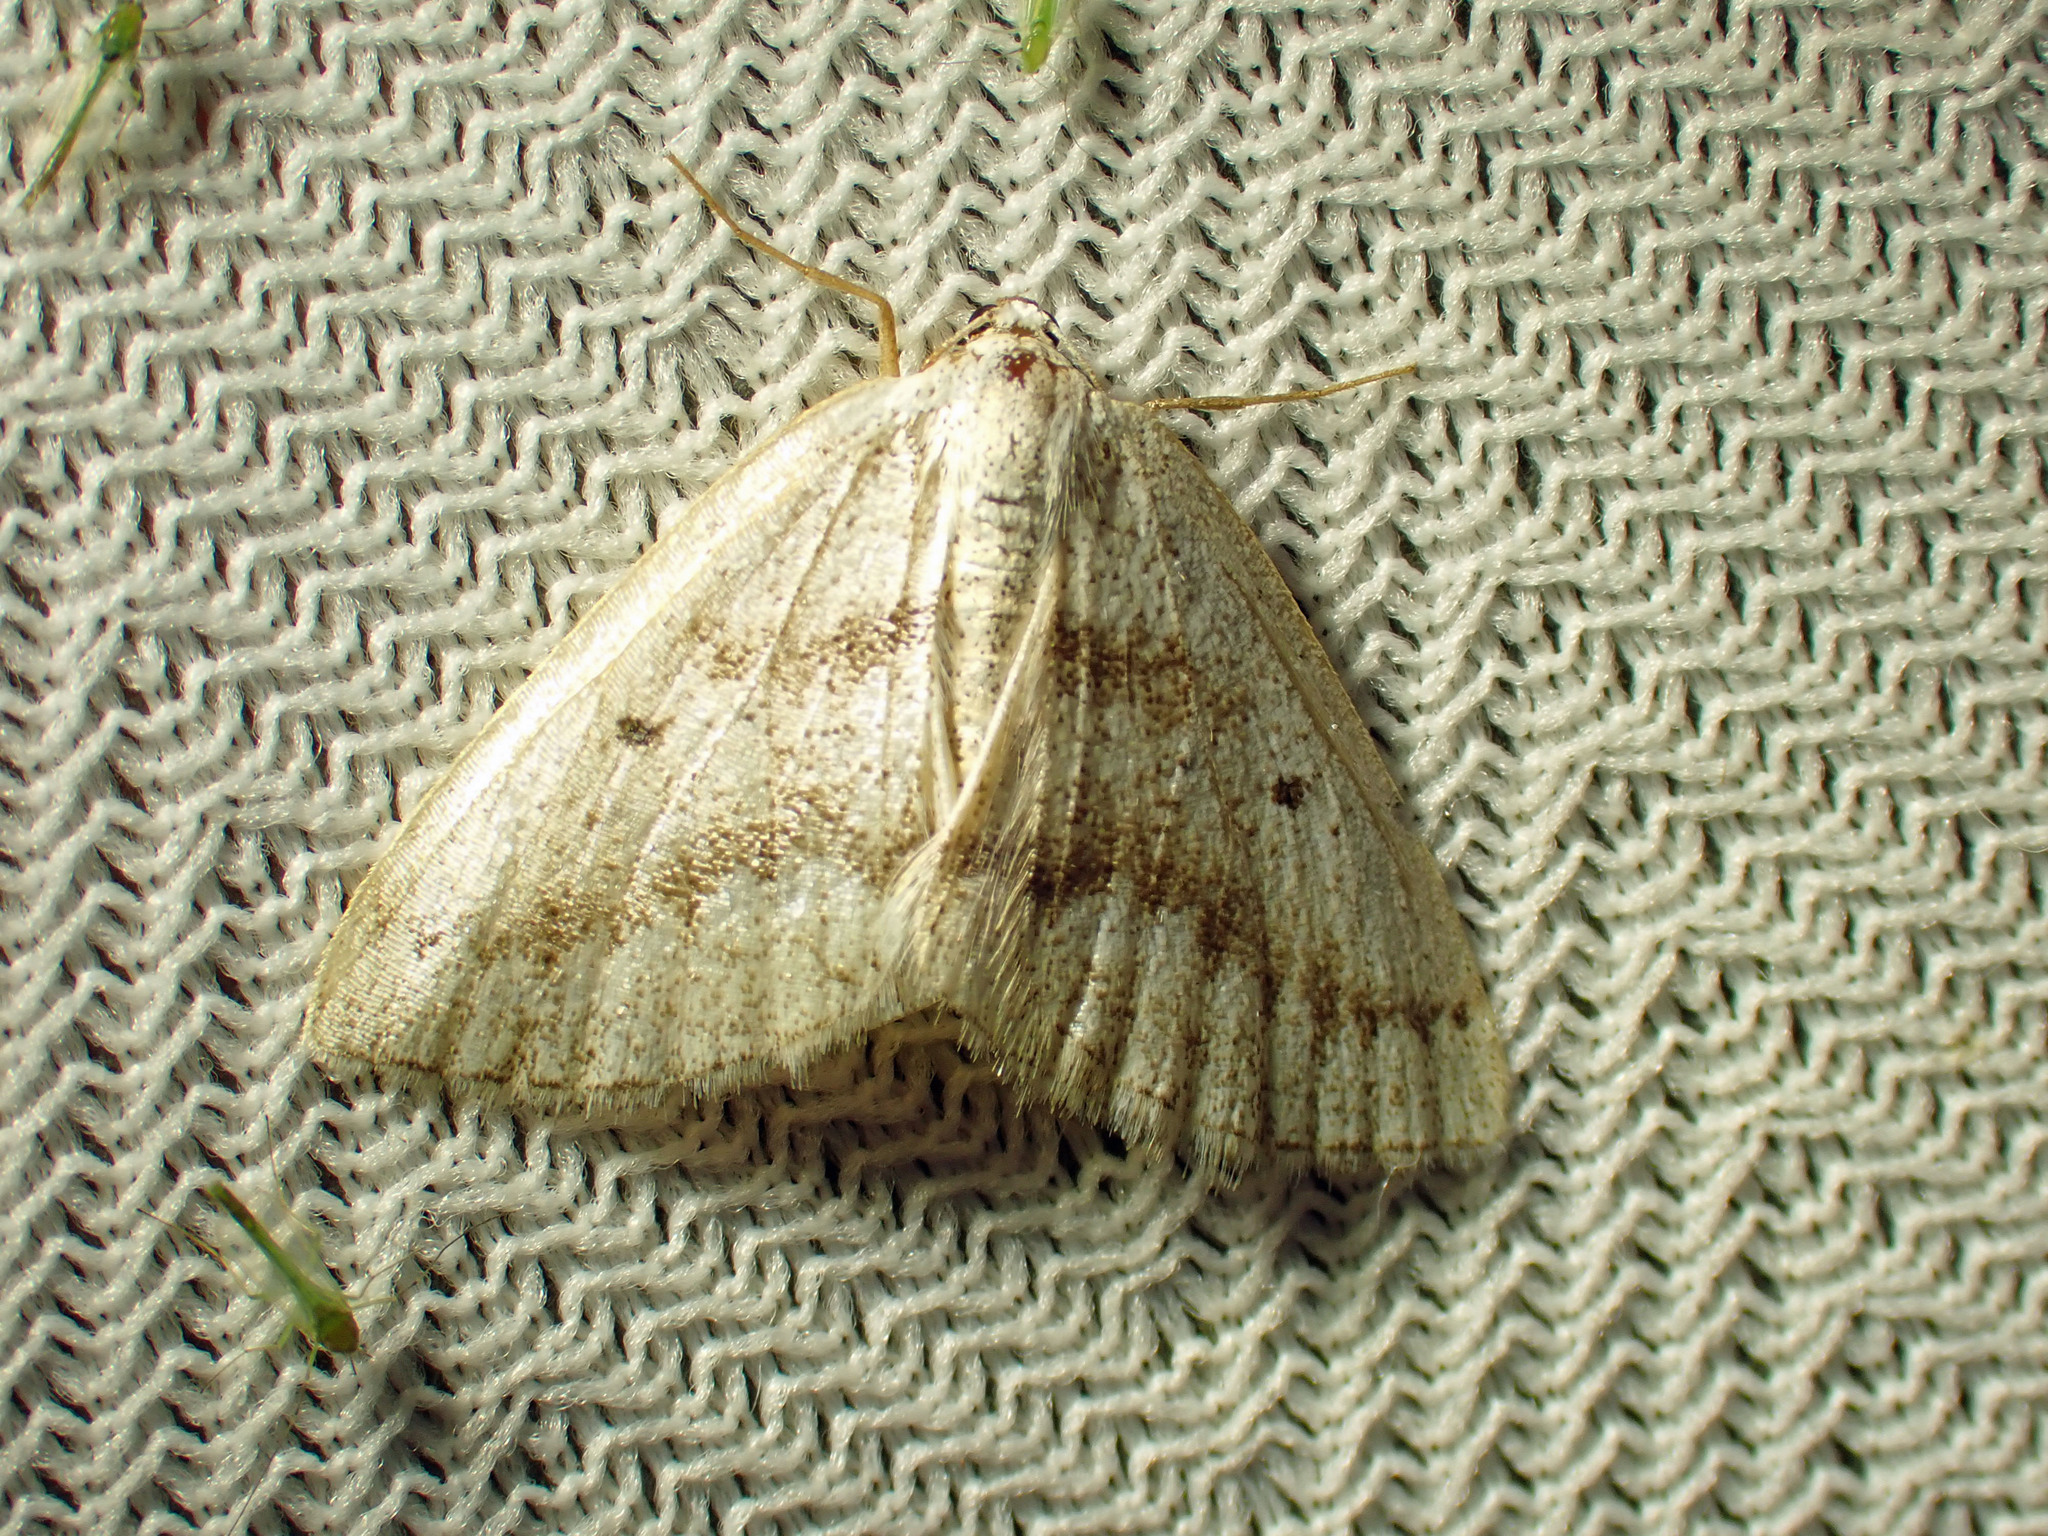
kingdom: Animalia
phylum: Arthropoda
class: Insecta
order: Lepidoptera
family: Geometridae
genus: Lomographa
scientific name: Lomographa glomeraria
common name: Gray spring moth
